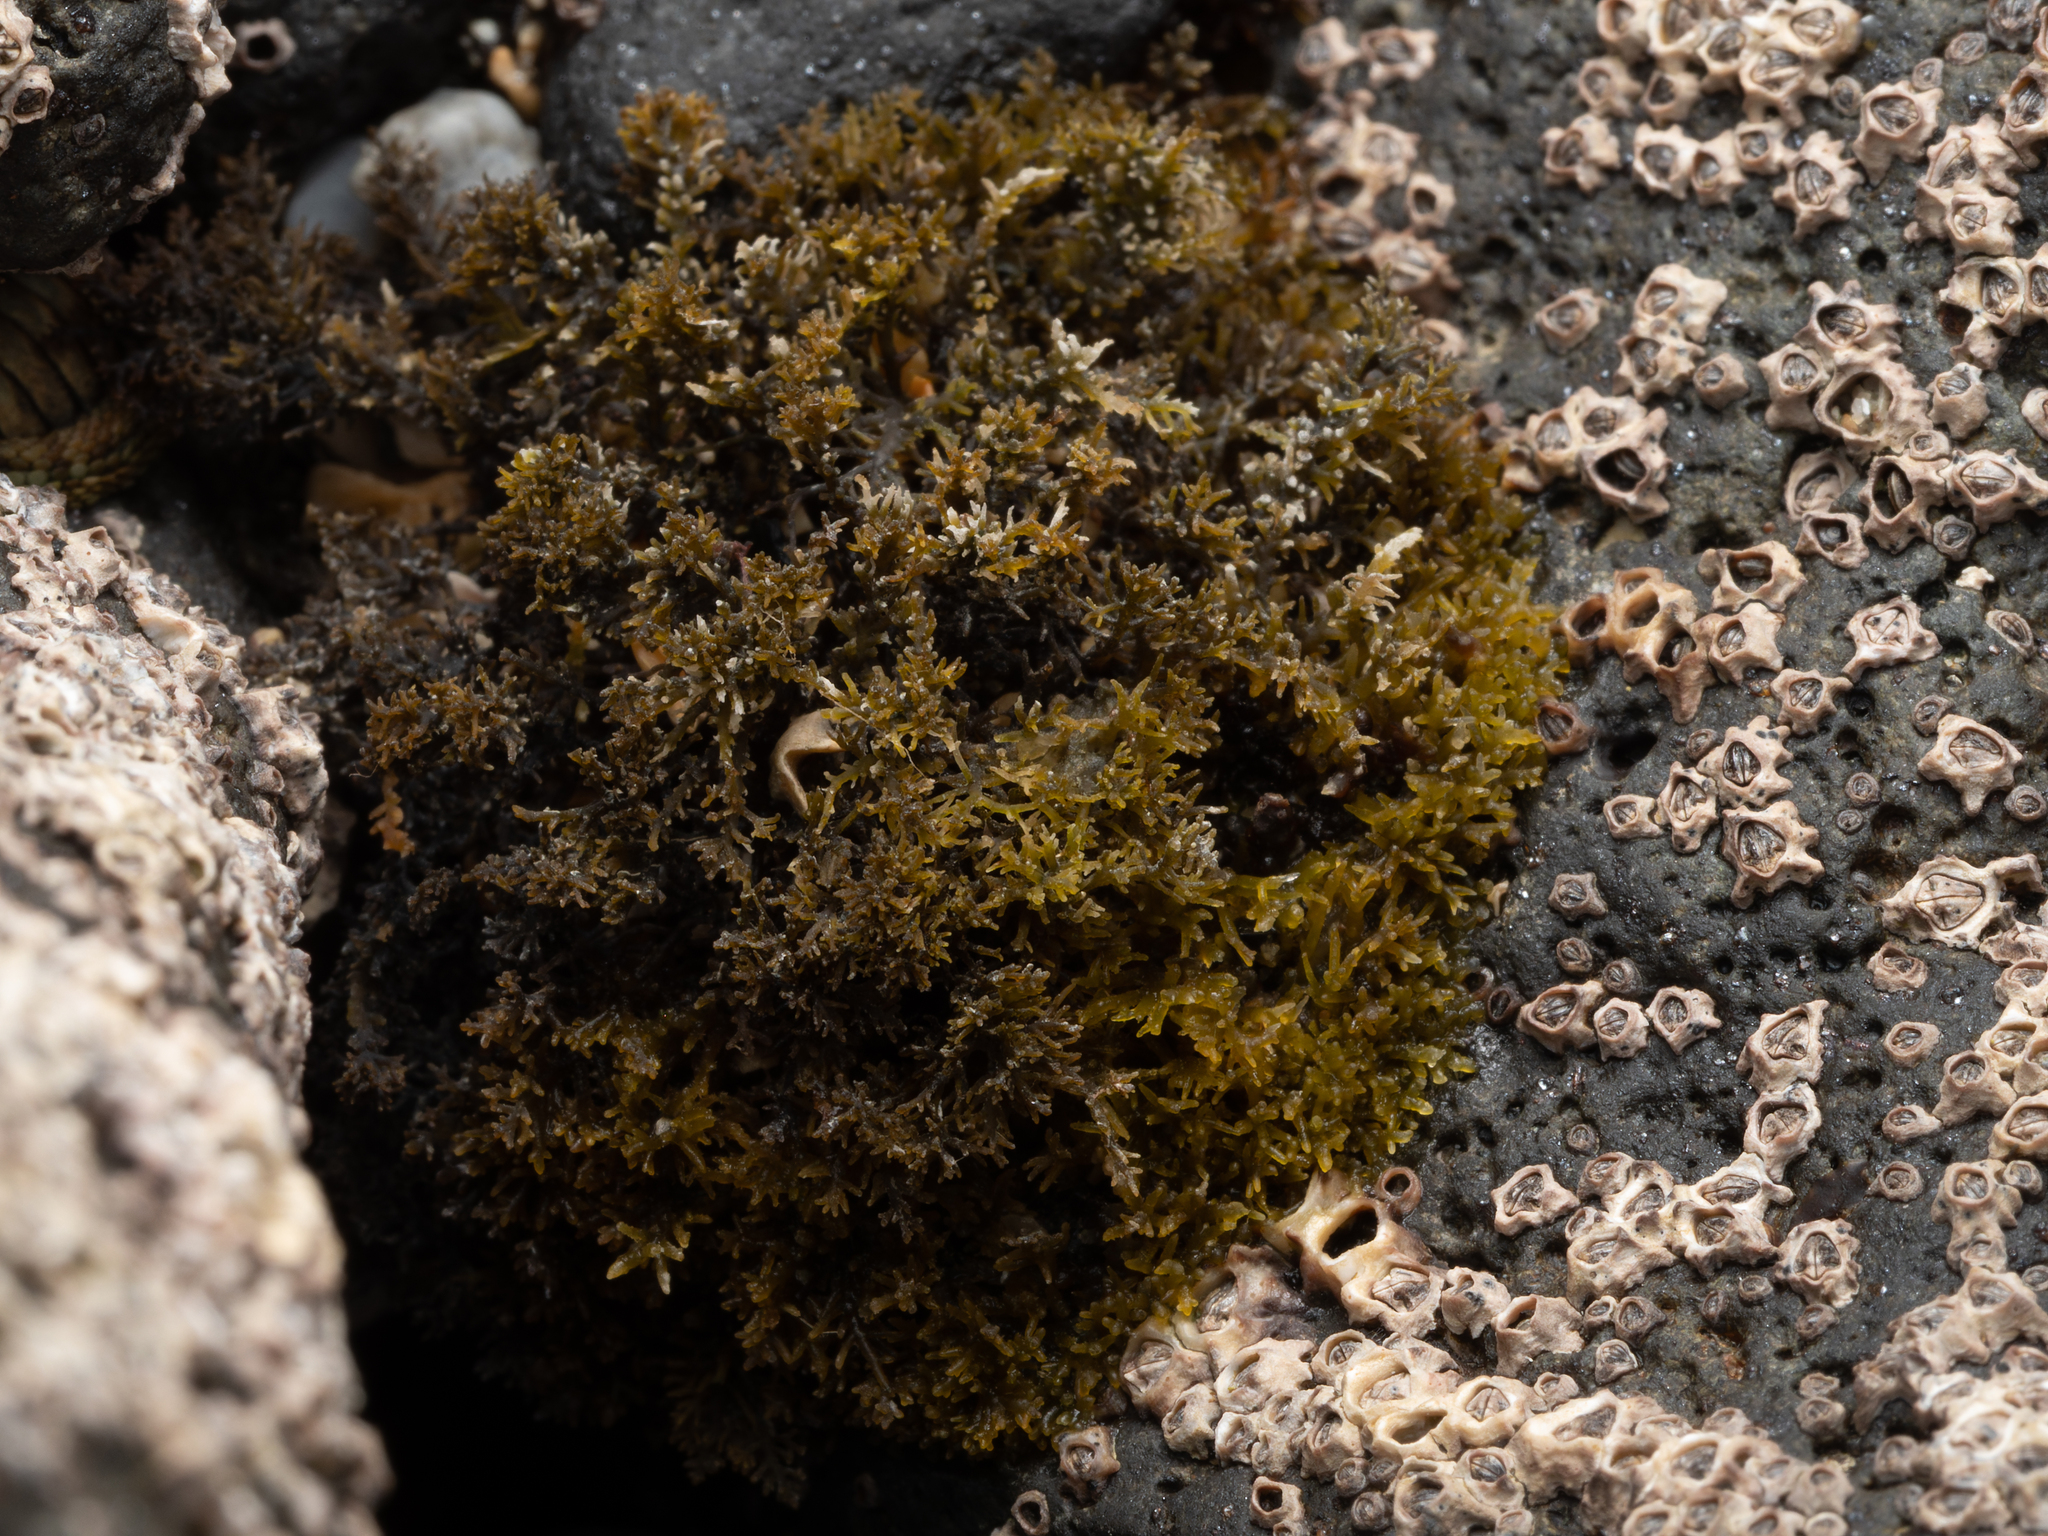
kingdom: Plantae
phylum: Rhodophyta
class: Florideophyceae
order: Gelidiales
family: Gelidiaceae
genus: Capreolia
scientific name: Capreolia implexa
